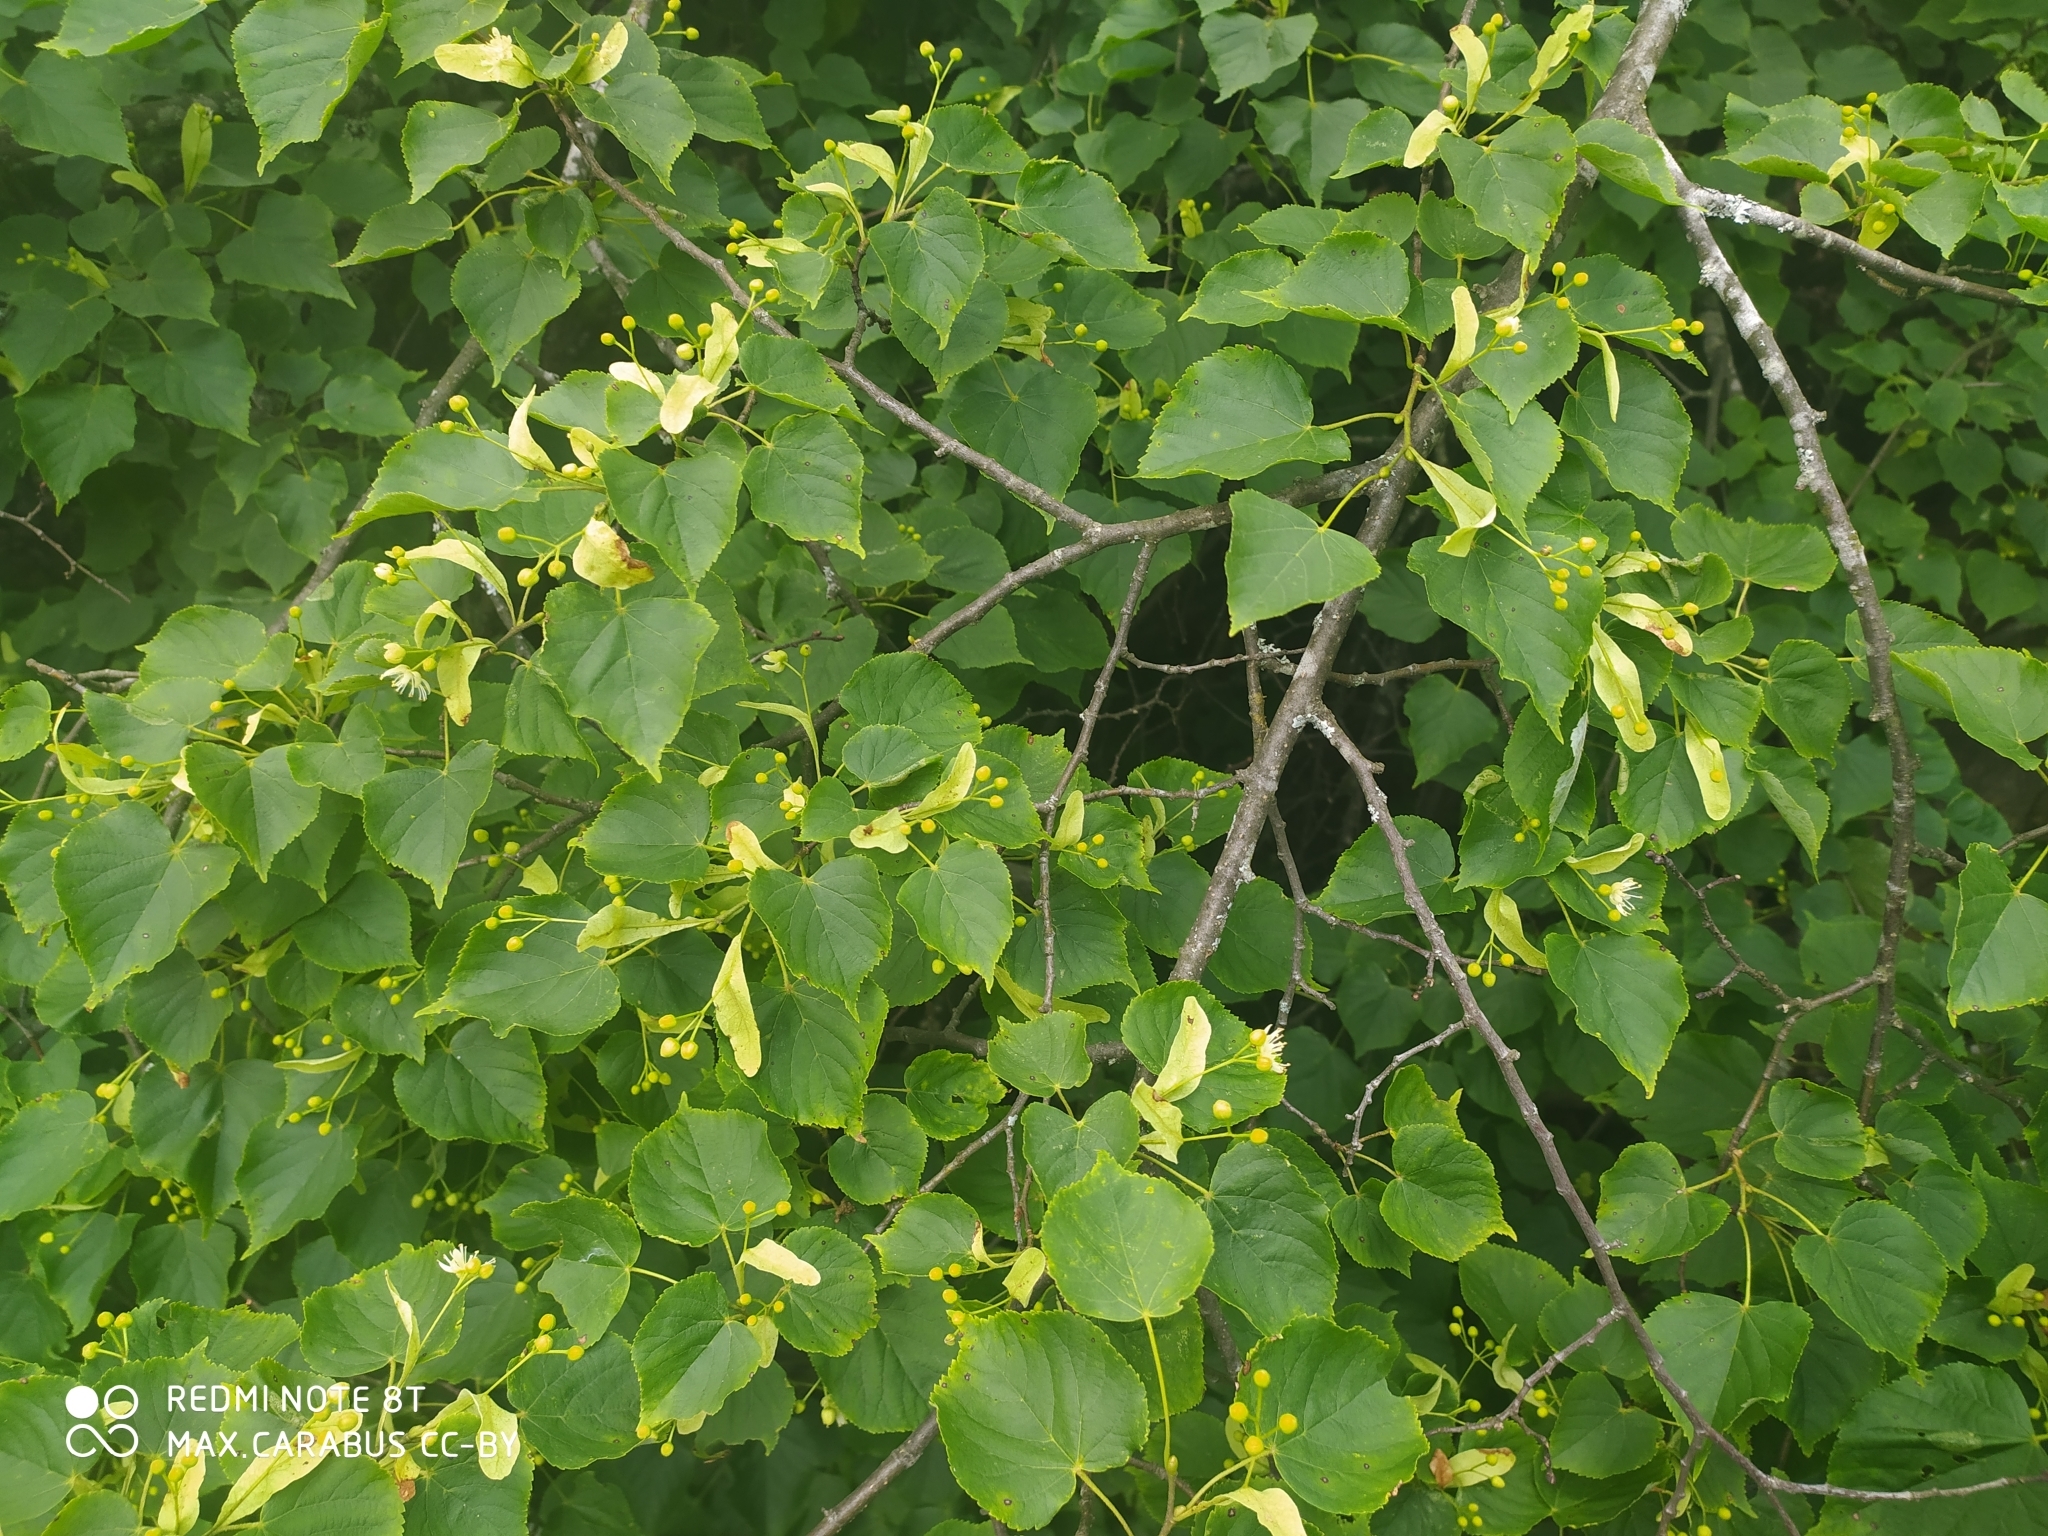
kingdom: Plantae
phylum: Tracheophyta
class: Magnoliopsida
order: Malvales
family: Malvaceae
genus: Tilia
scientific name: Tilia cordata
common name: Small-leaved lime
